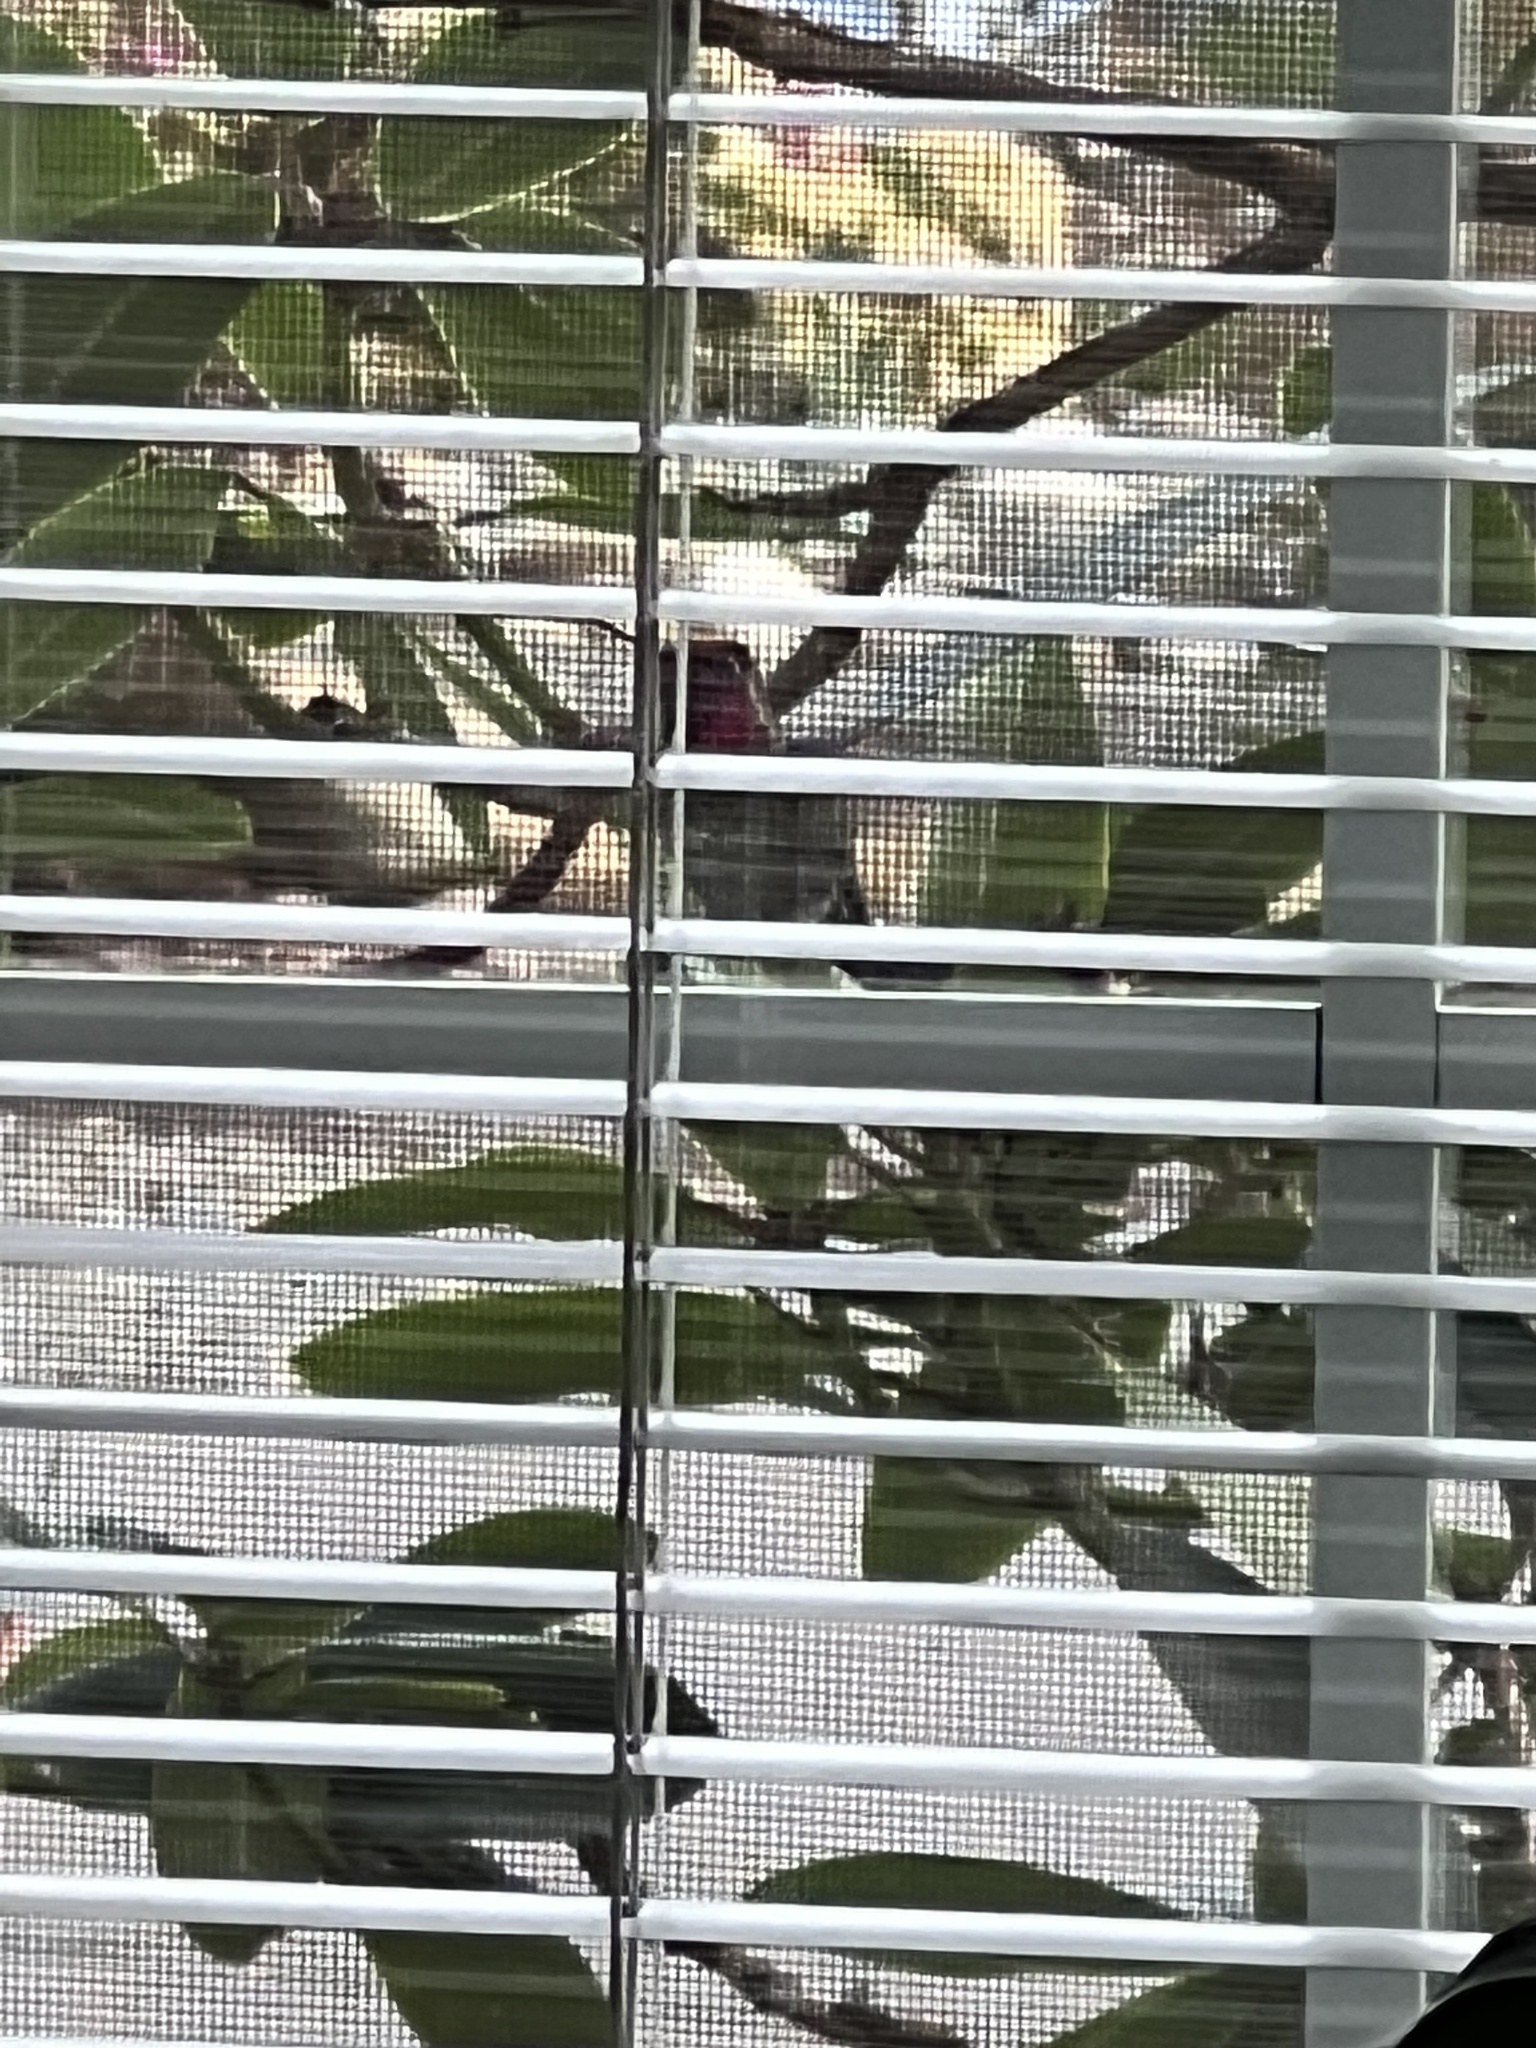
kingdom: Animalia
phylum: Chordata
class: Aves
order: Apodiformes
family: Trochilidae
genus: Calypte
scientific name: Calypte anna
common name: Anna's hummingbird
